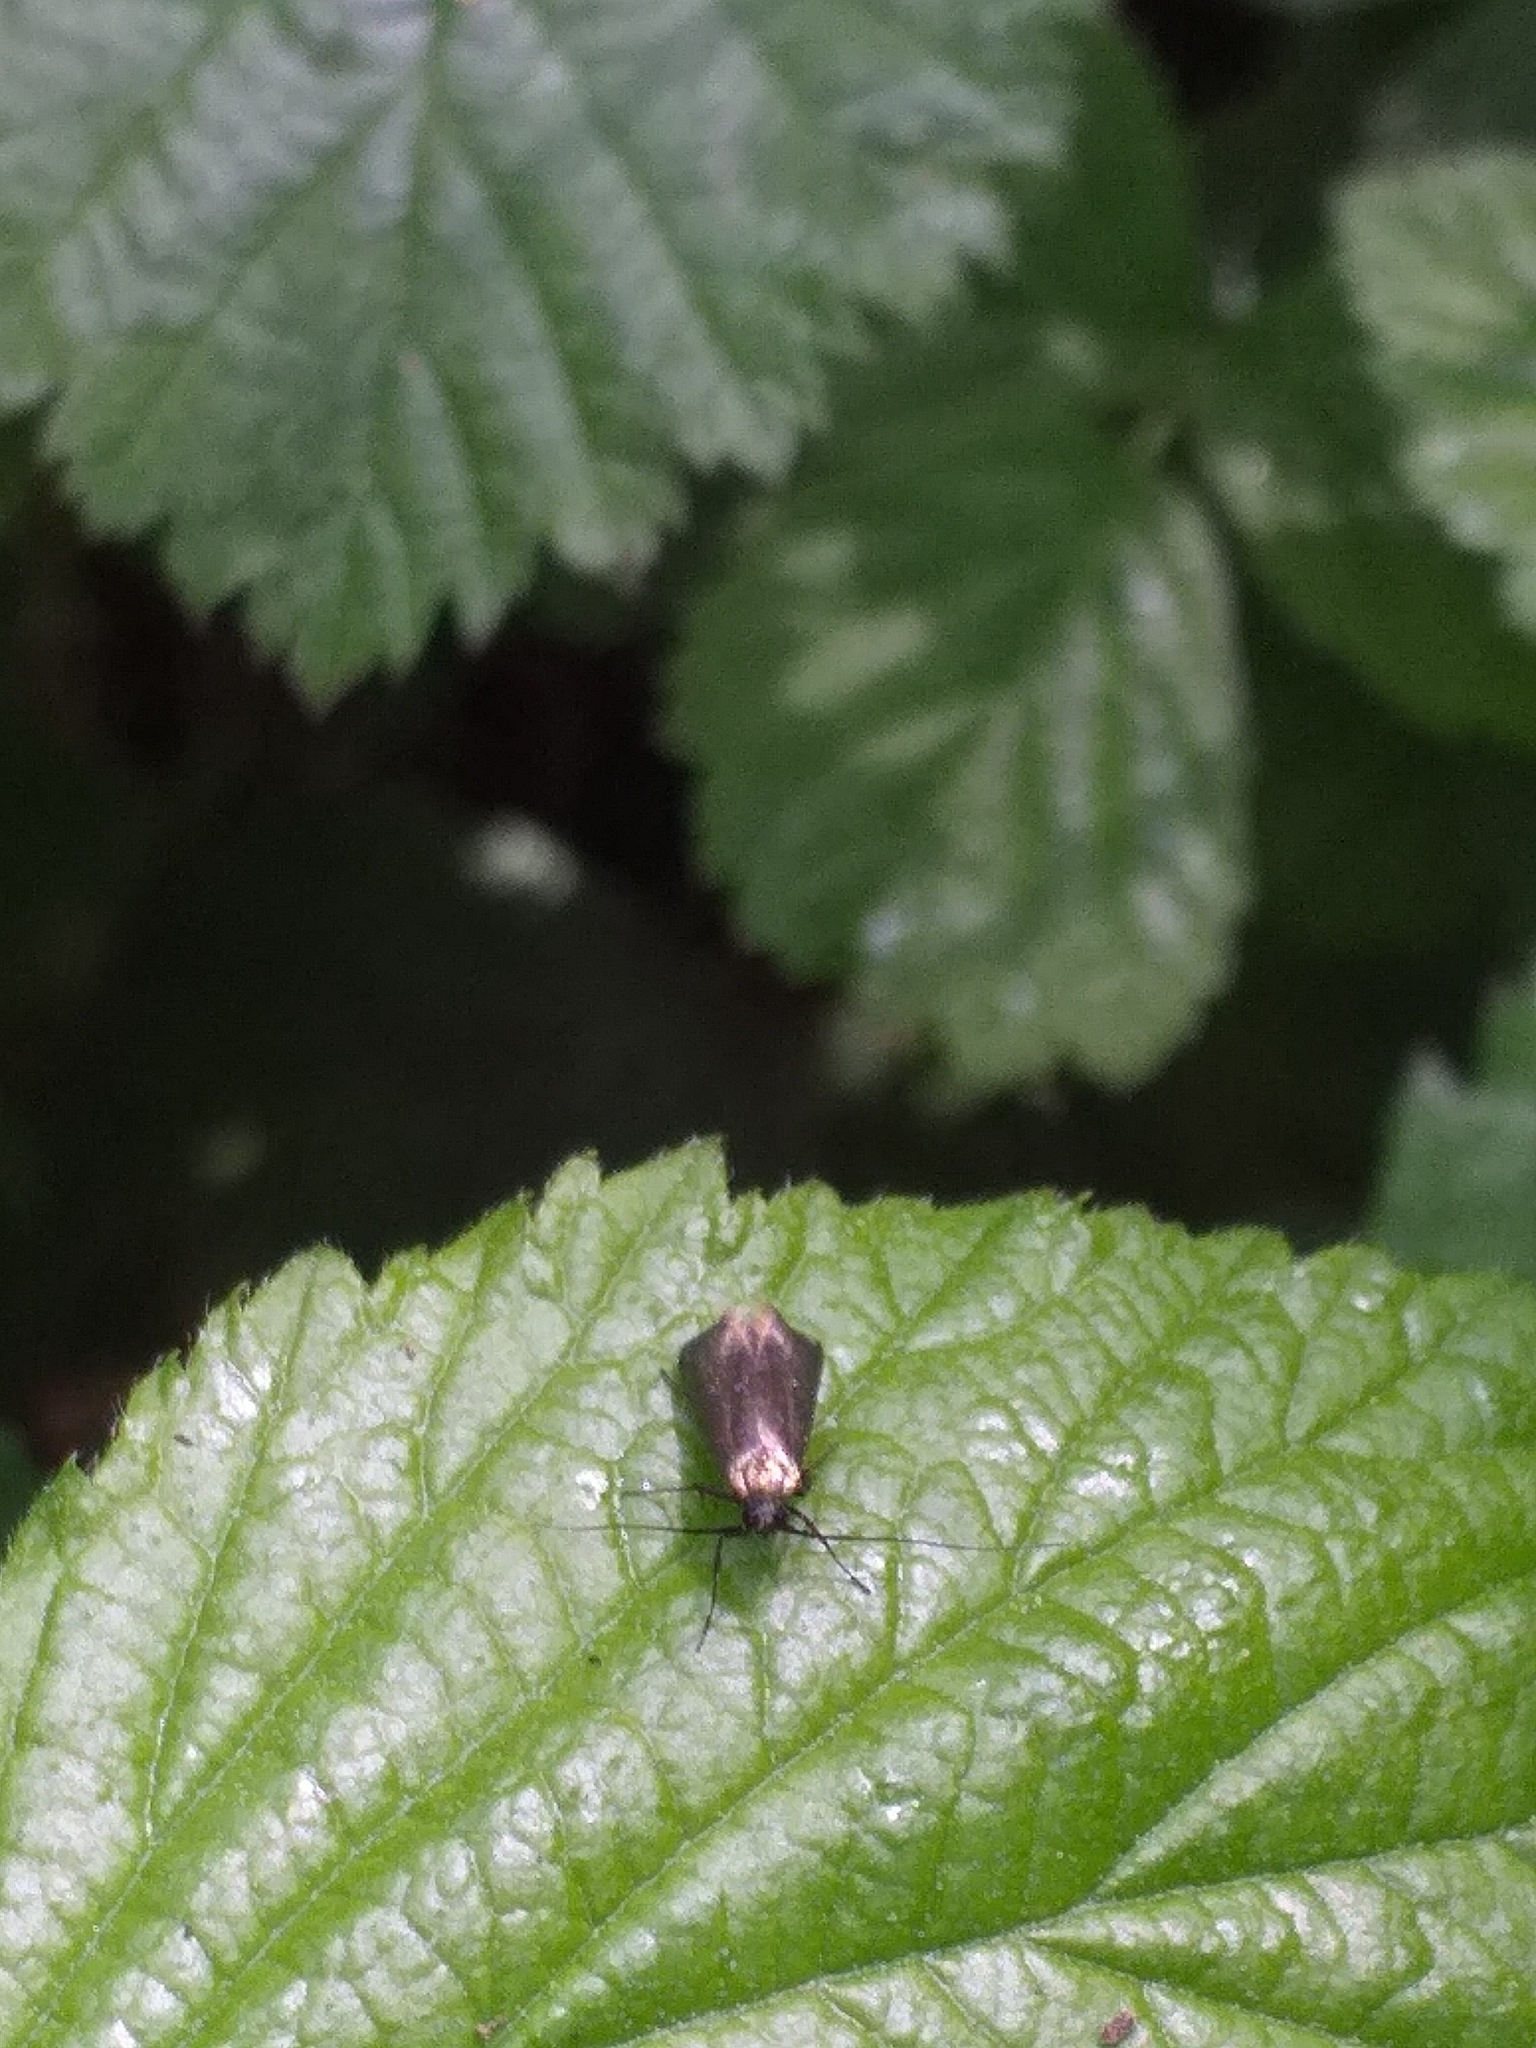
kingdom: Animalia
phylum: Arthropoda
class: Insecta
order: Lepidoptera
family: Adelidae
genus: Adela
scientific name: Adela viridella
